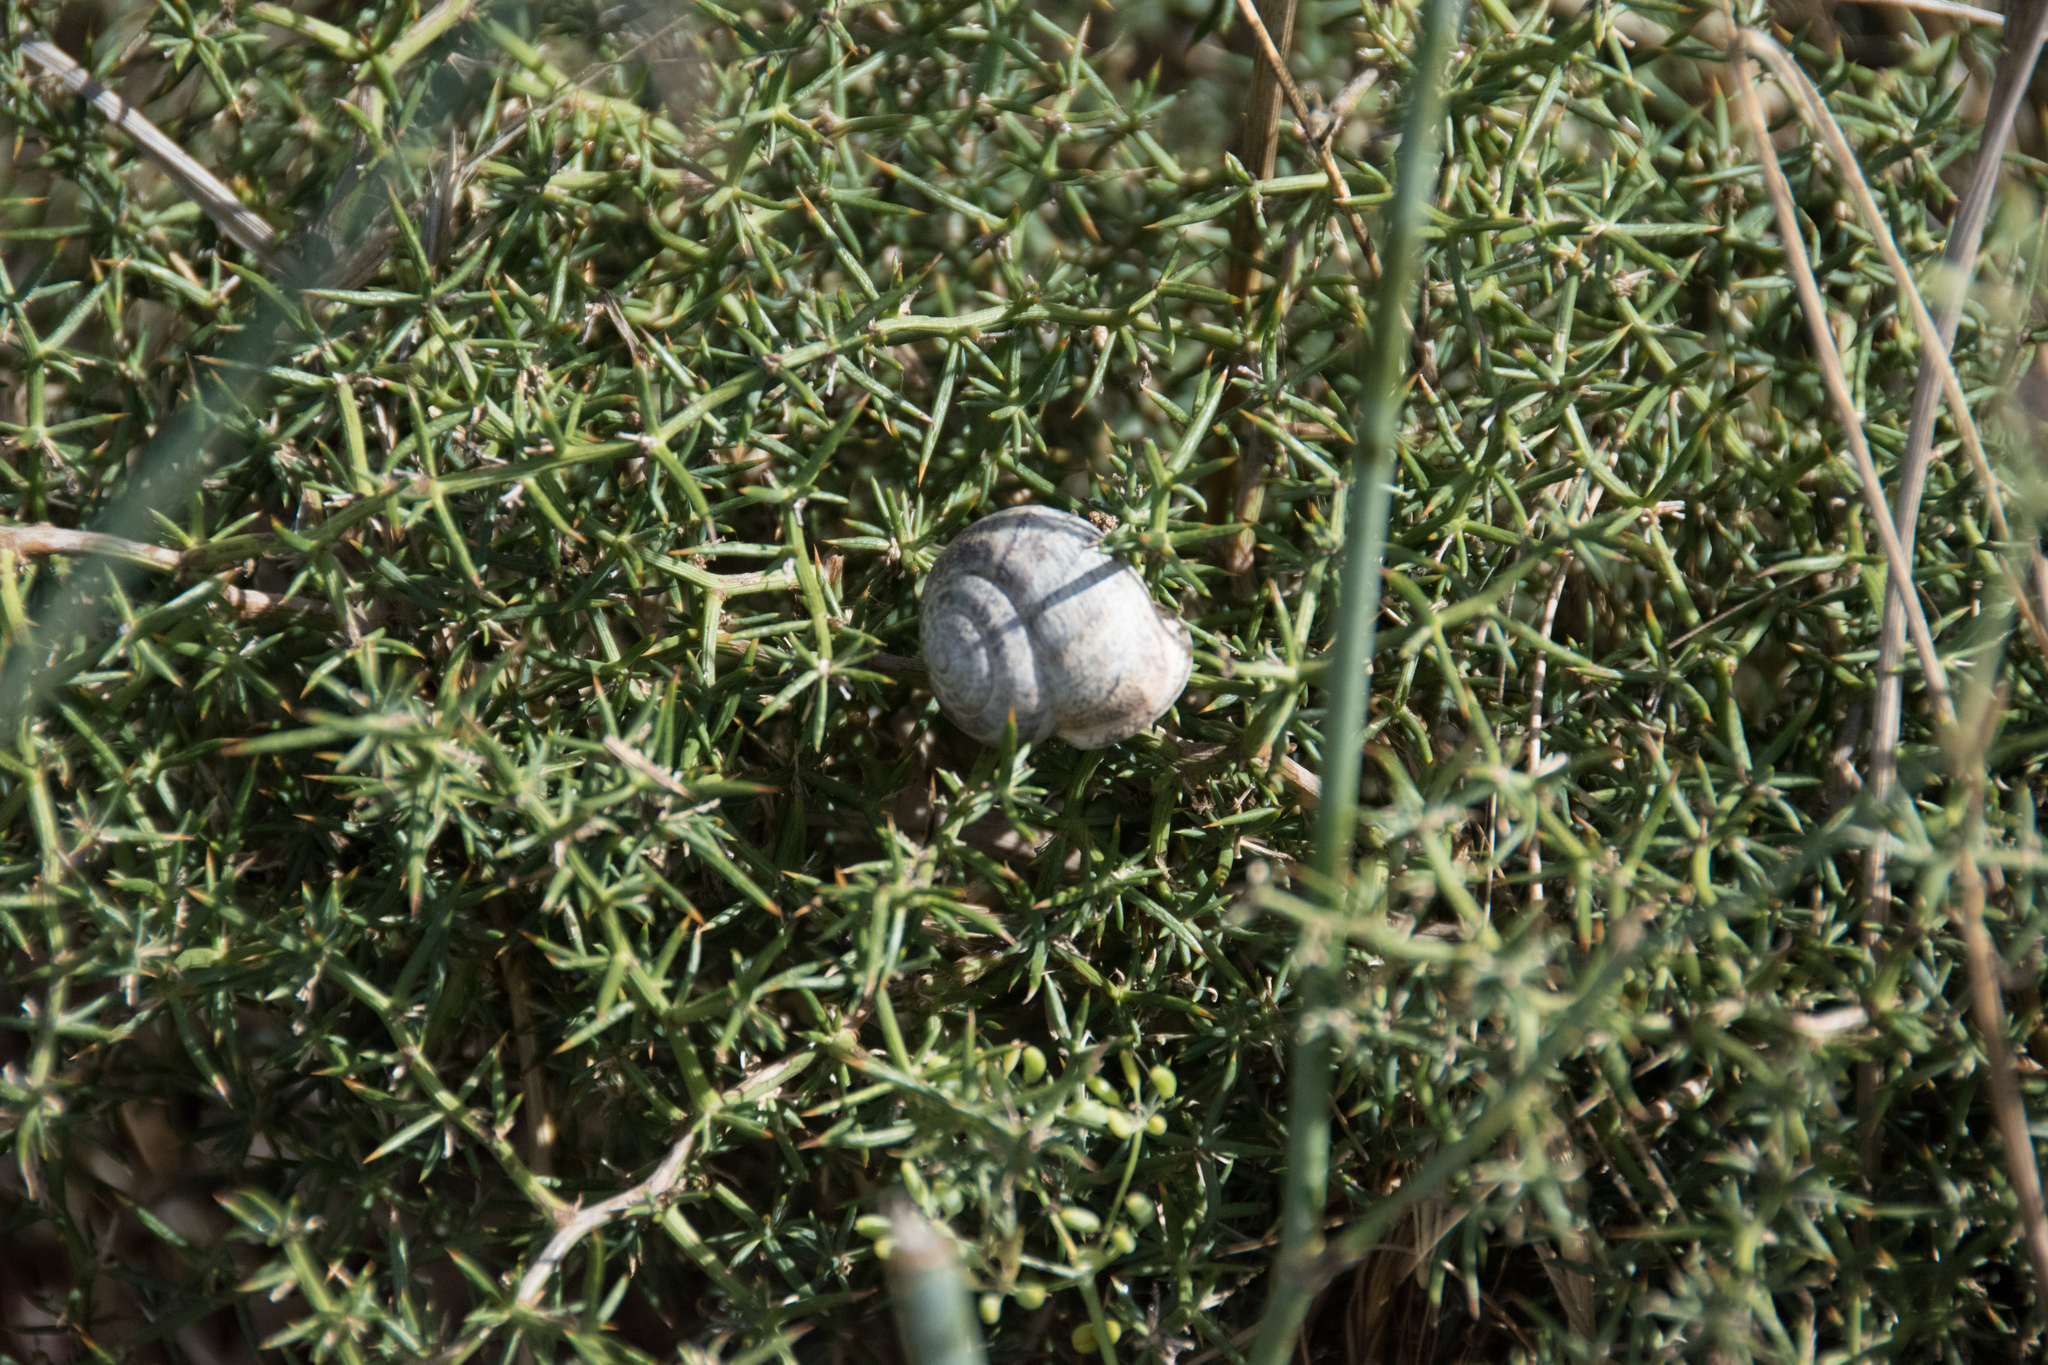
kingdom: Animalia
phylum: Mollusca
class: Gastropoda
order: Stylommatophora
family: Helicidae
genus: Eobania
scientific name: Eobania vermiculata
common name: Chocolateband snail
